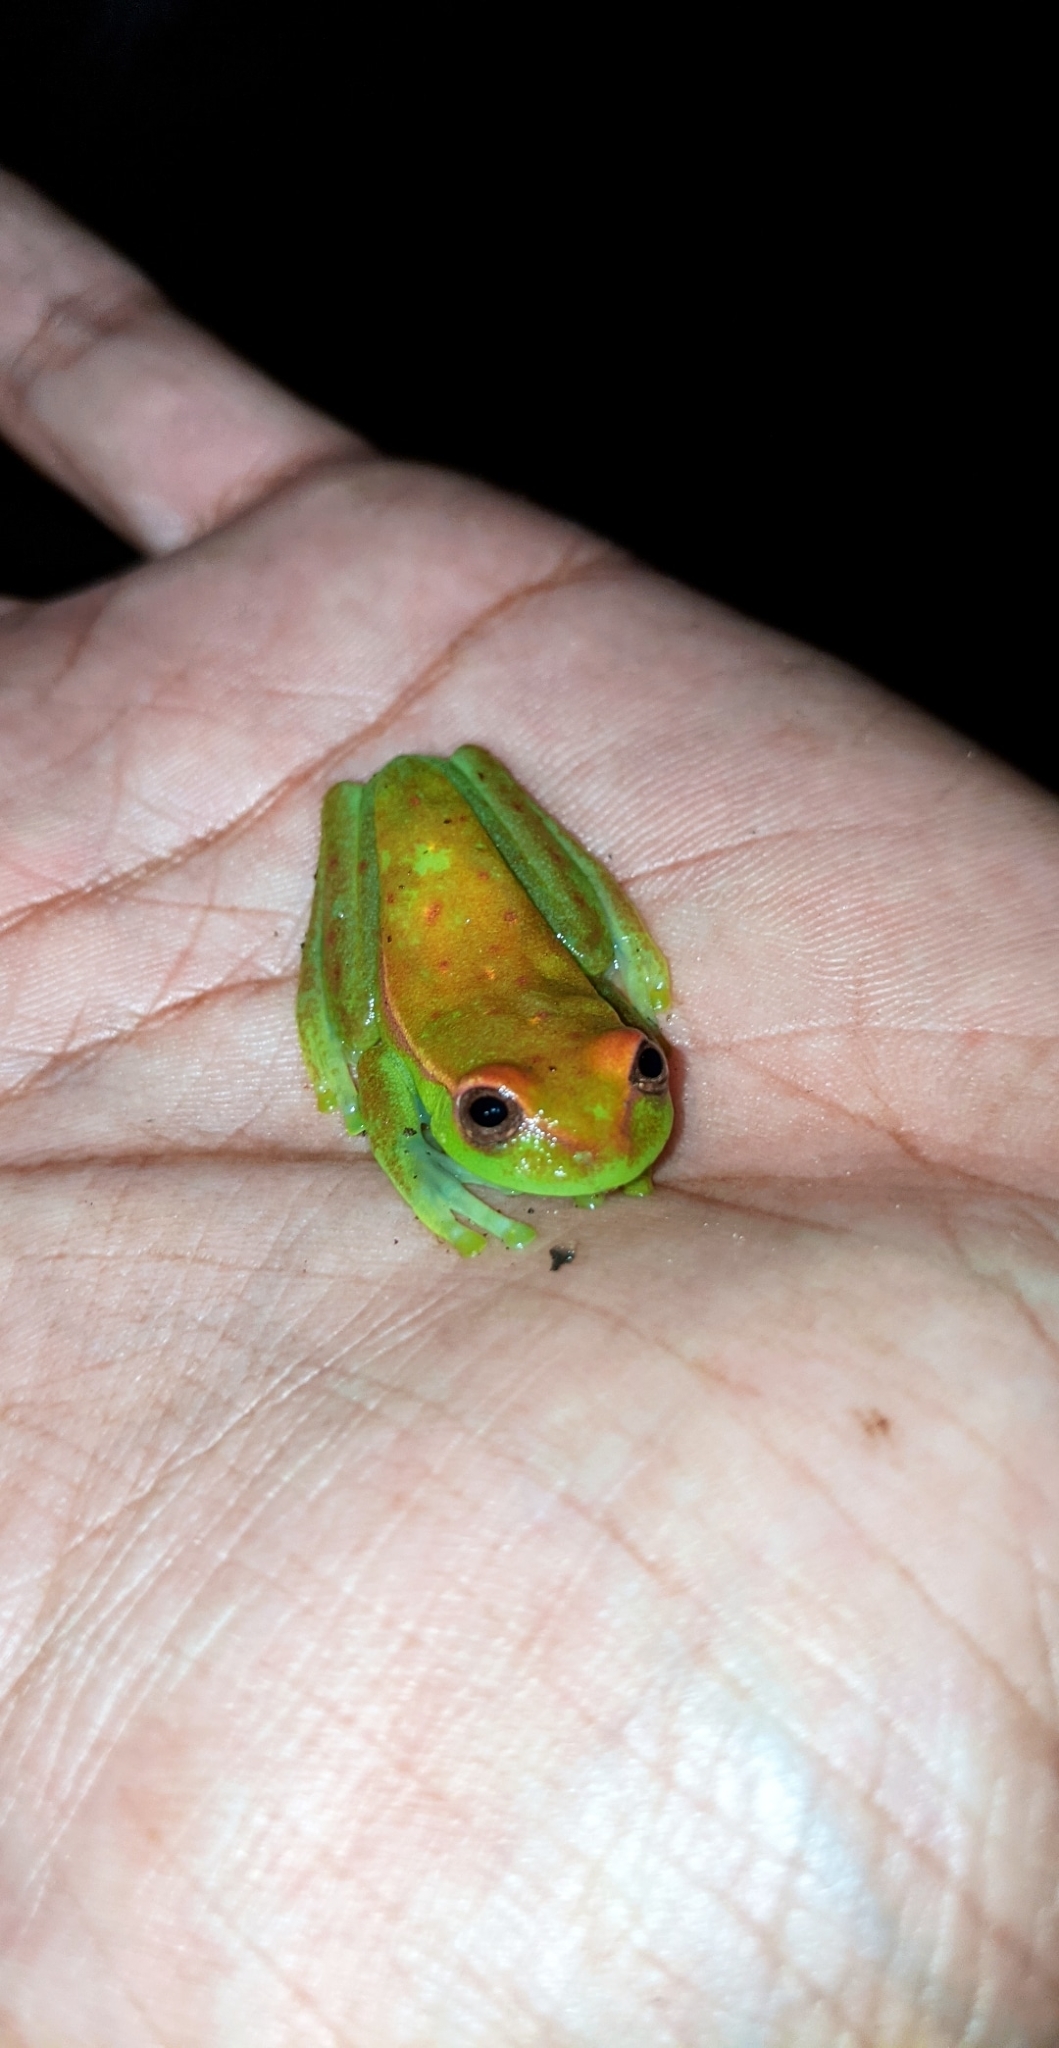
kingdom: Animalia
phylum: Chordata
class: Amphibia
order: Anura
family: Hylidae
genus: Boana
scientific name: Boana punctata
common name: Polka-dot treefrog
